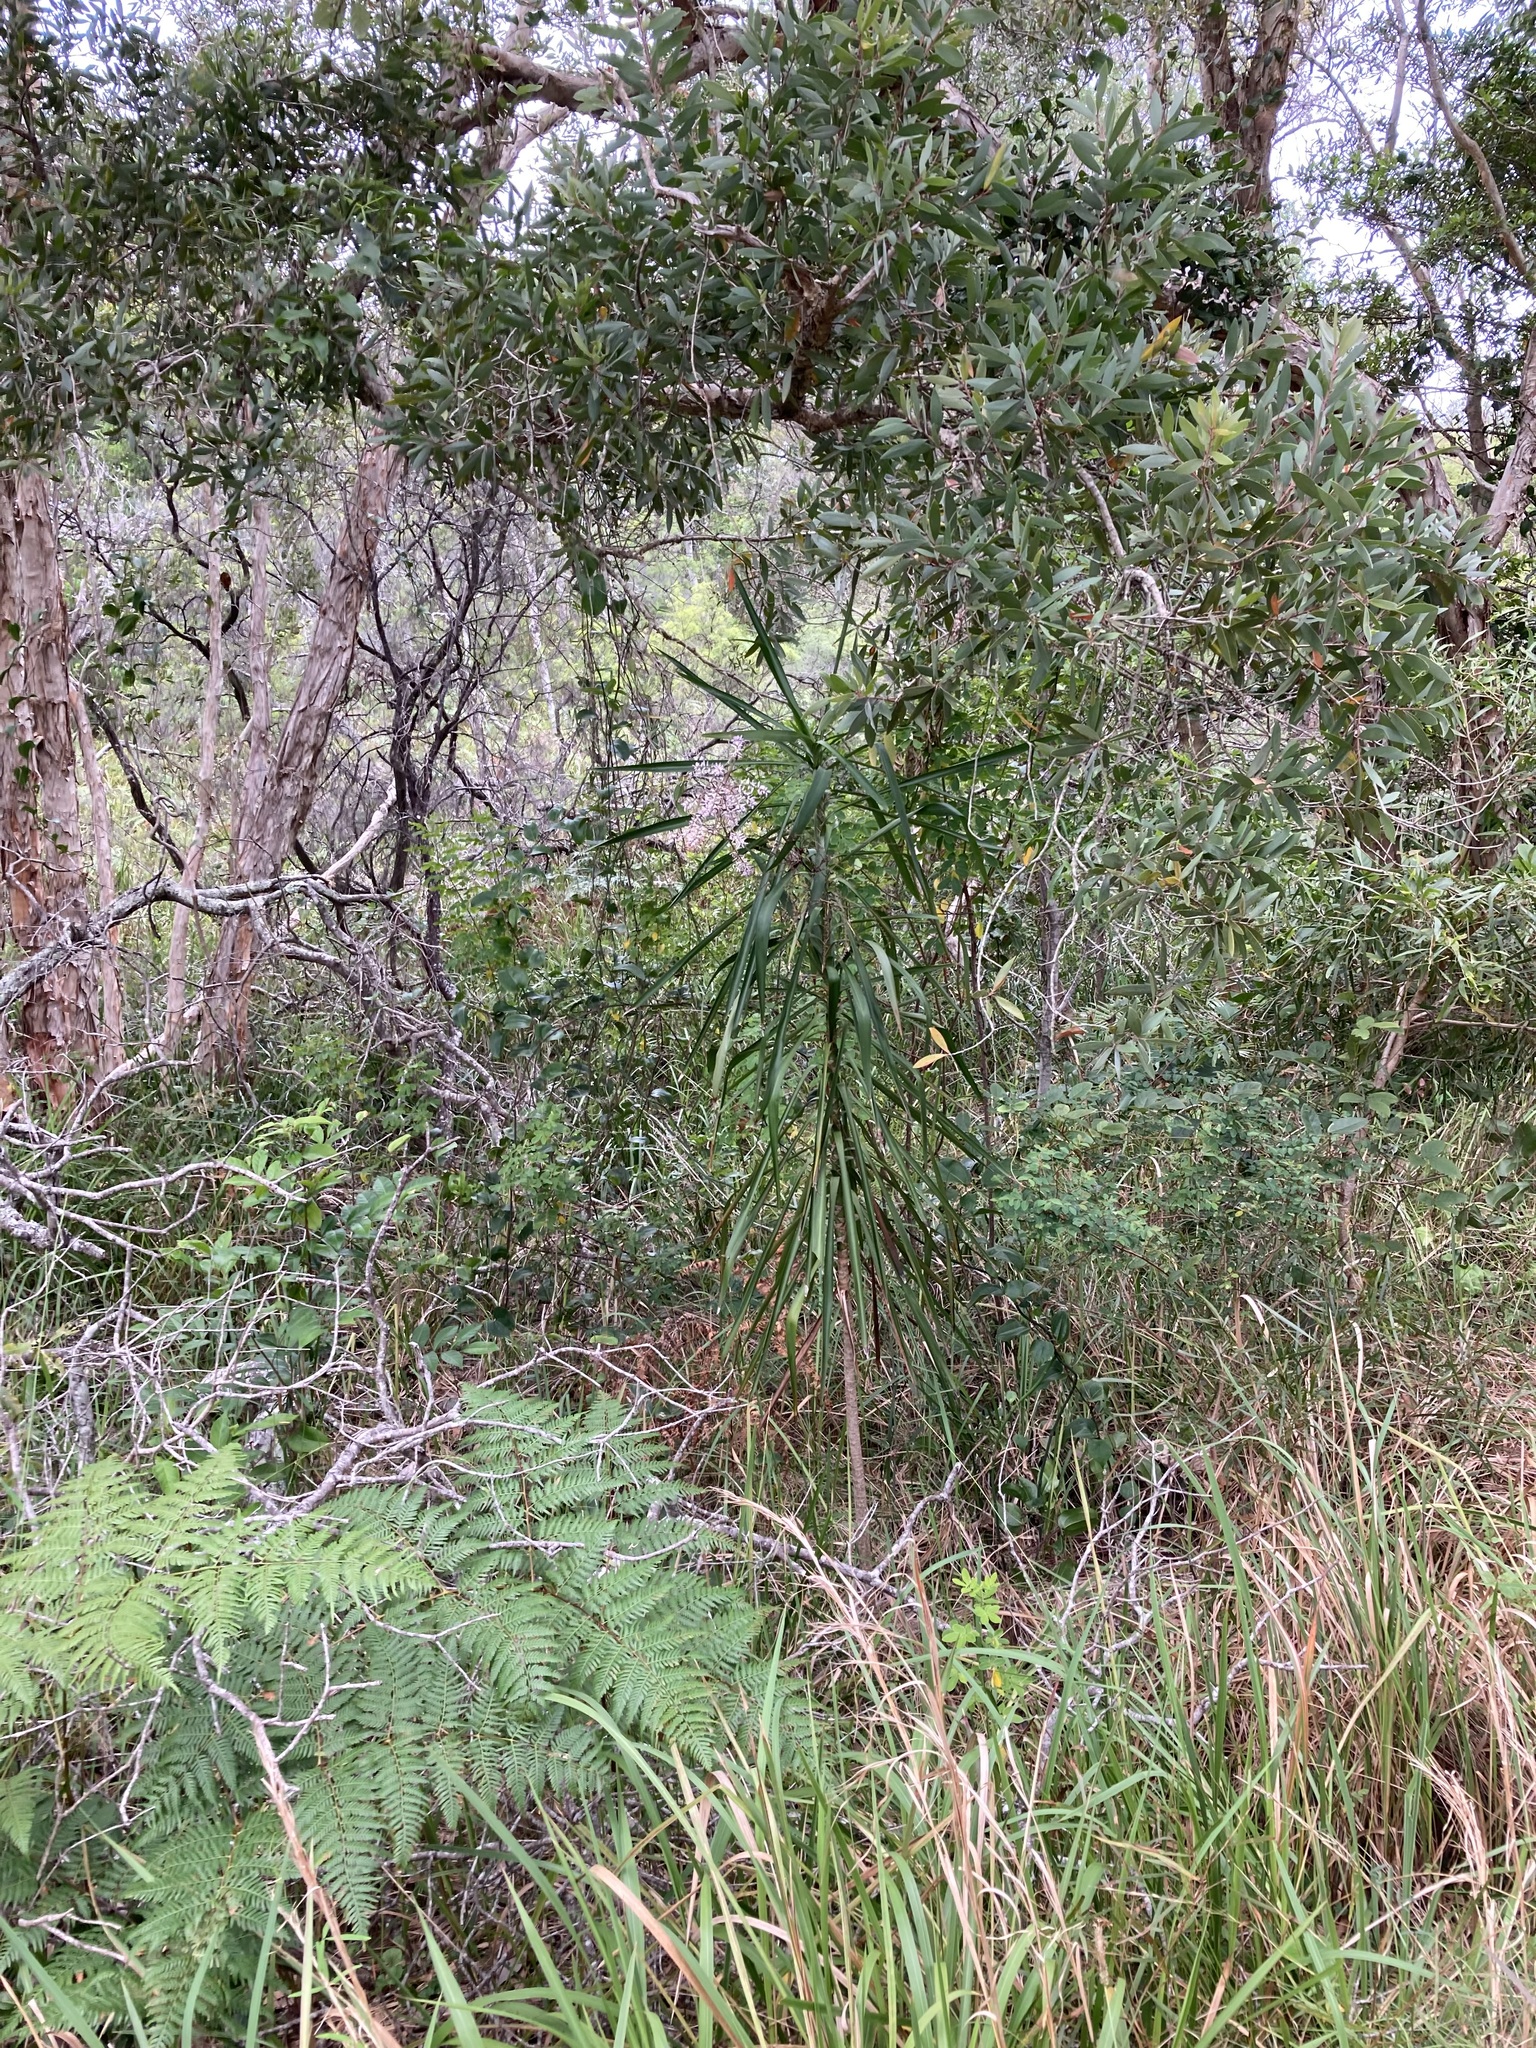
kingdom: Plantae
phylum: Tracheophyta
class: Liliopsida
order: Asparagales
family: Asparagaceae
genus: Cordyline
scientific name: Cordyline stricta
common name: Narrow-leaf palm-lily
